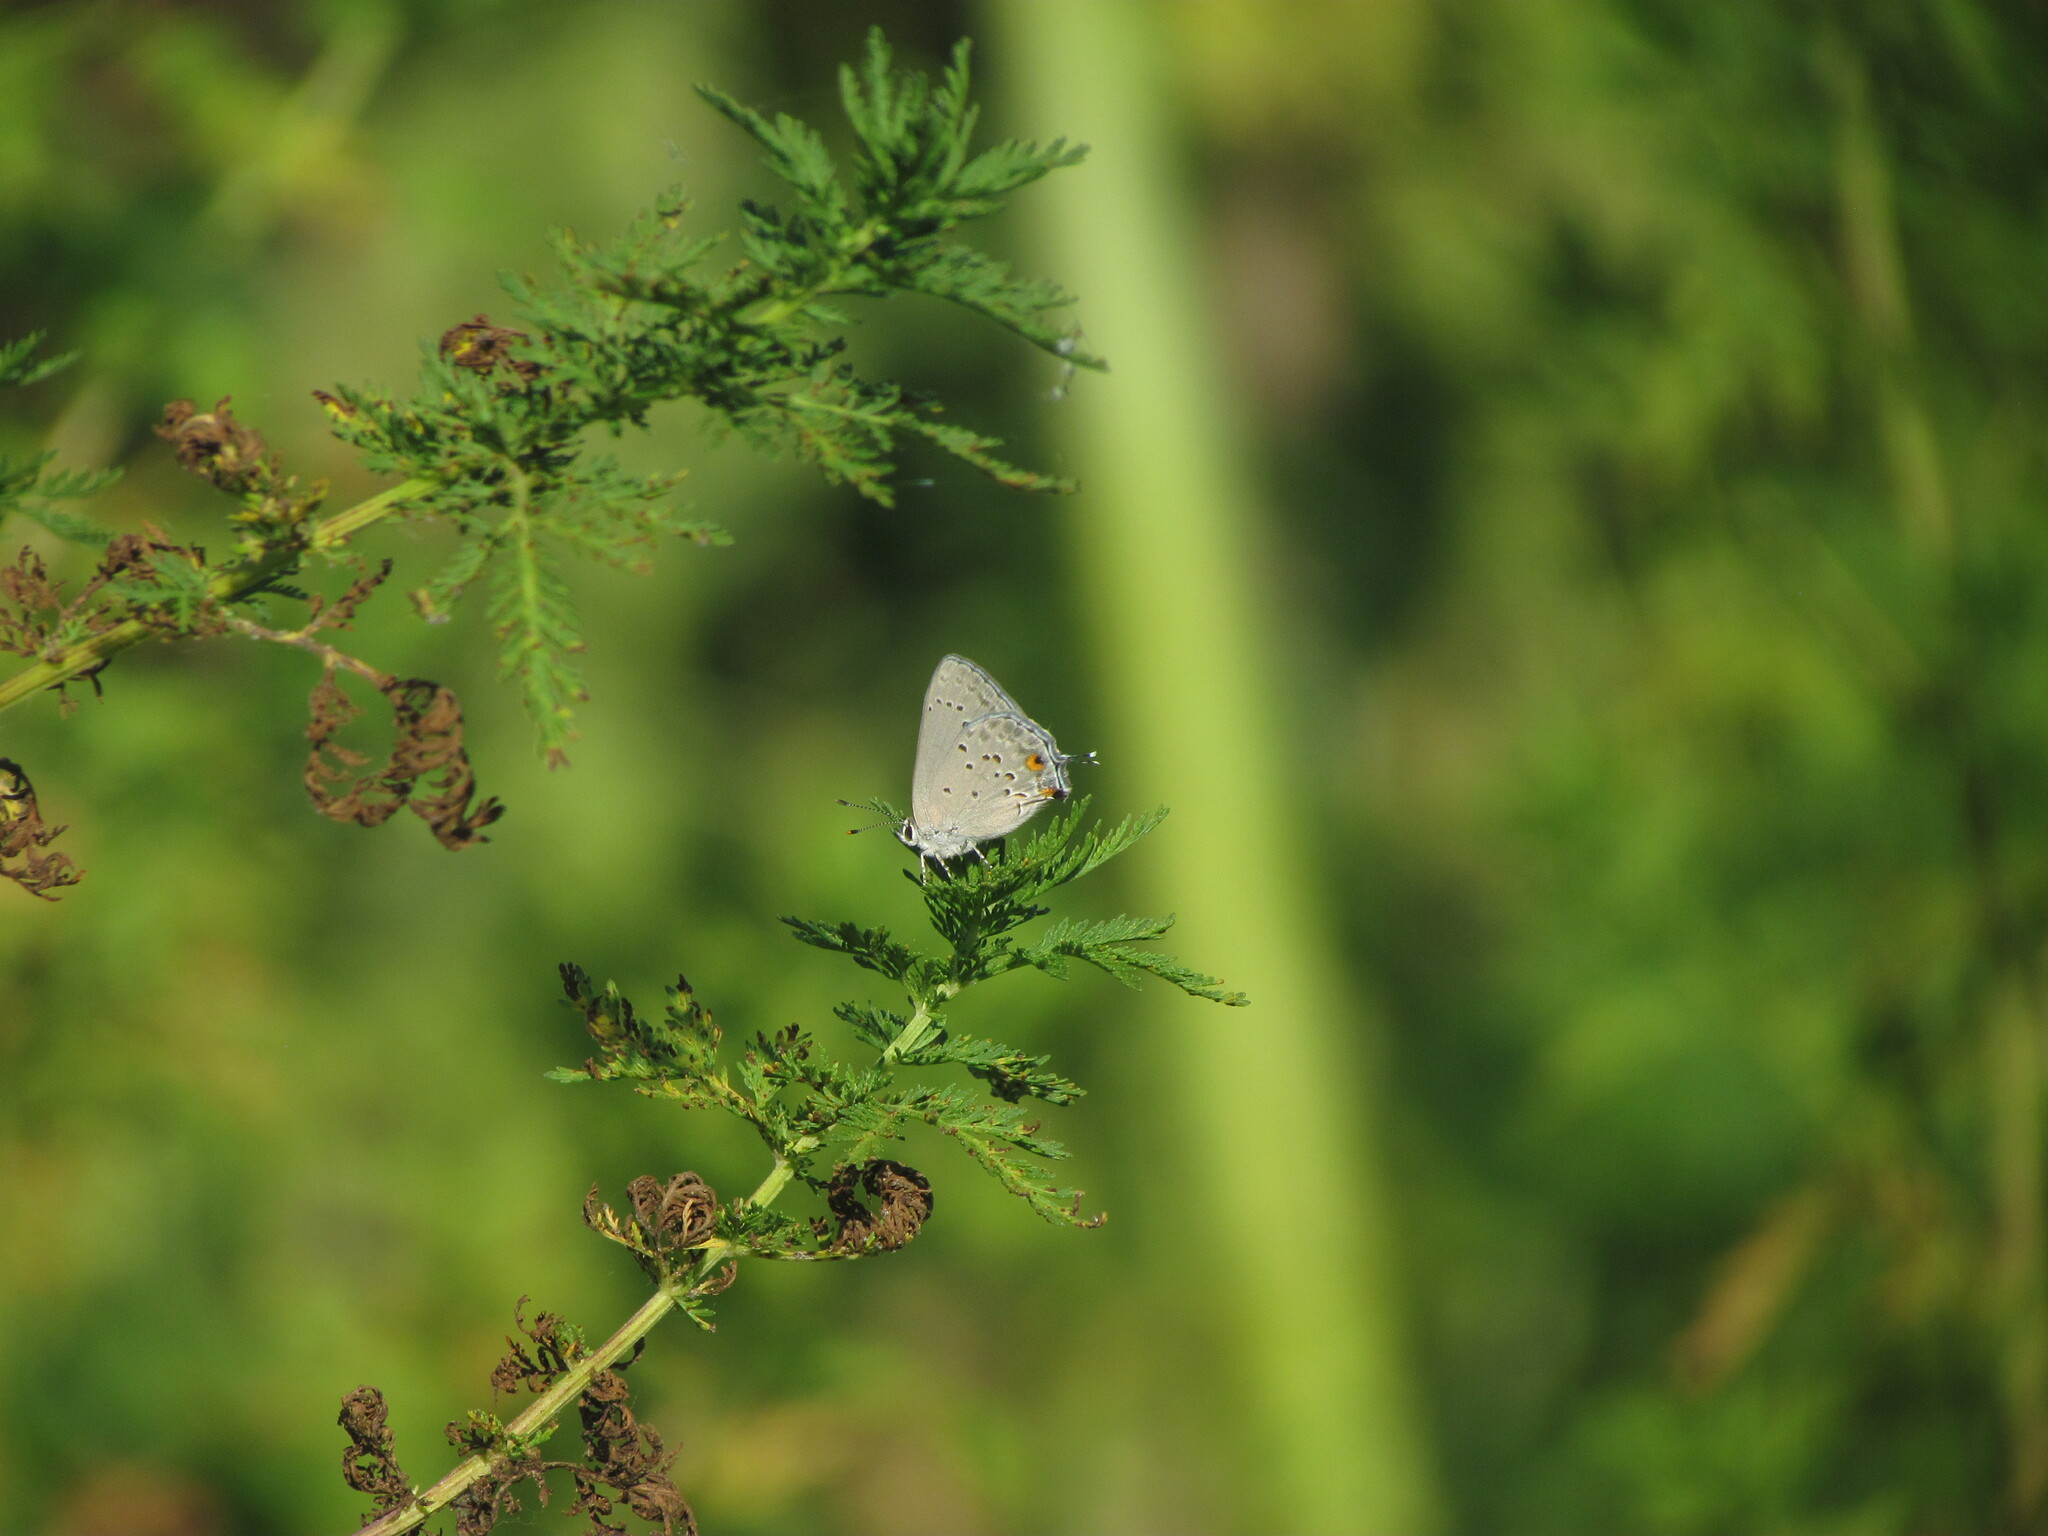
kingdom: Animalia
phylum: Arthropoda
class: Insecta
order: Lepidoptera
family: Lycaenidae
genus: Strymon
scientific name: Strymon eurytulus
